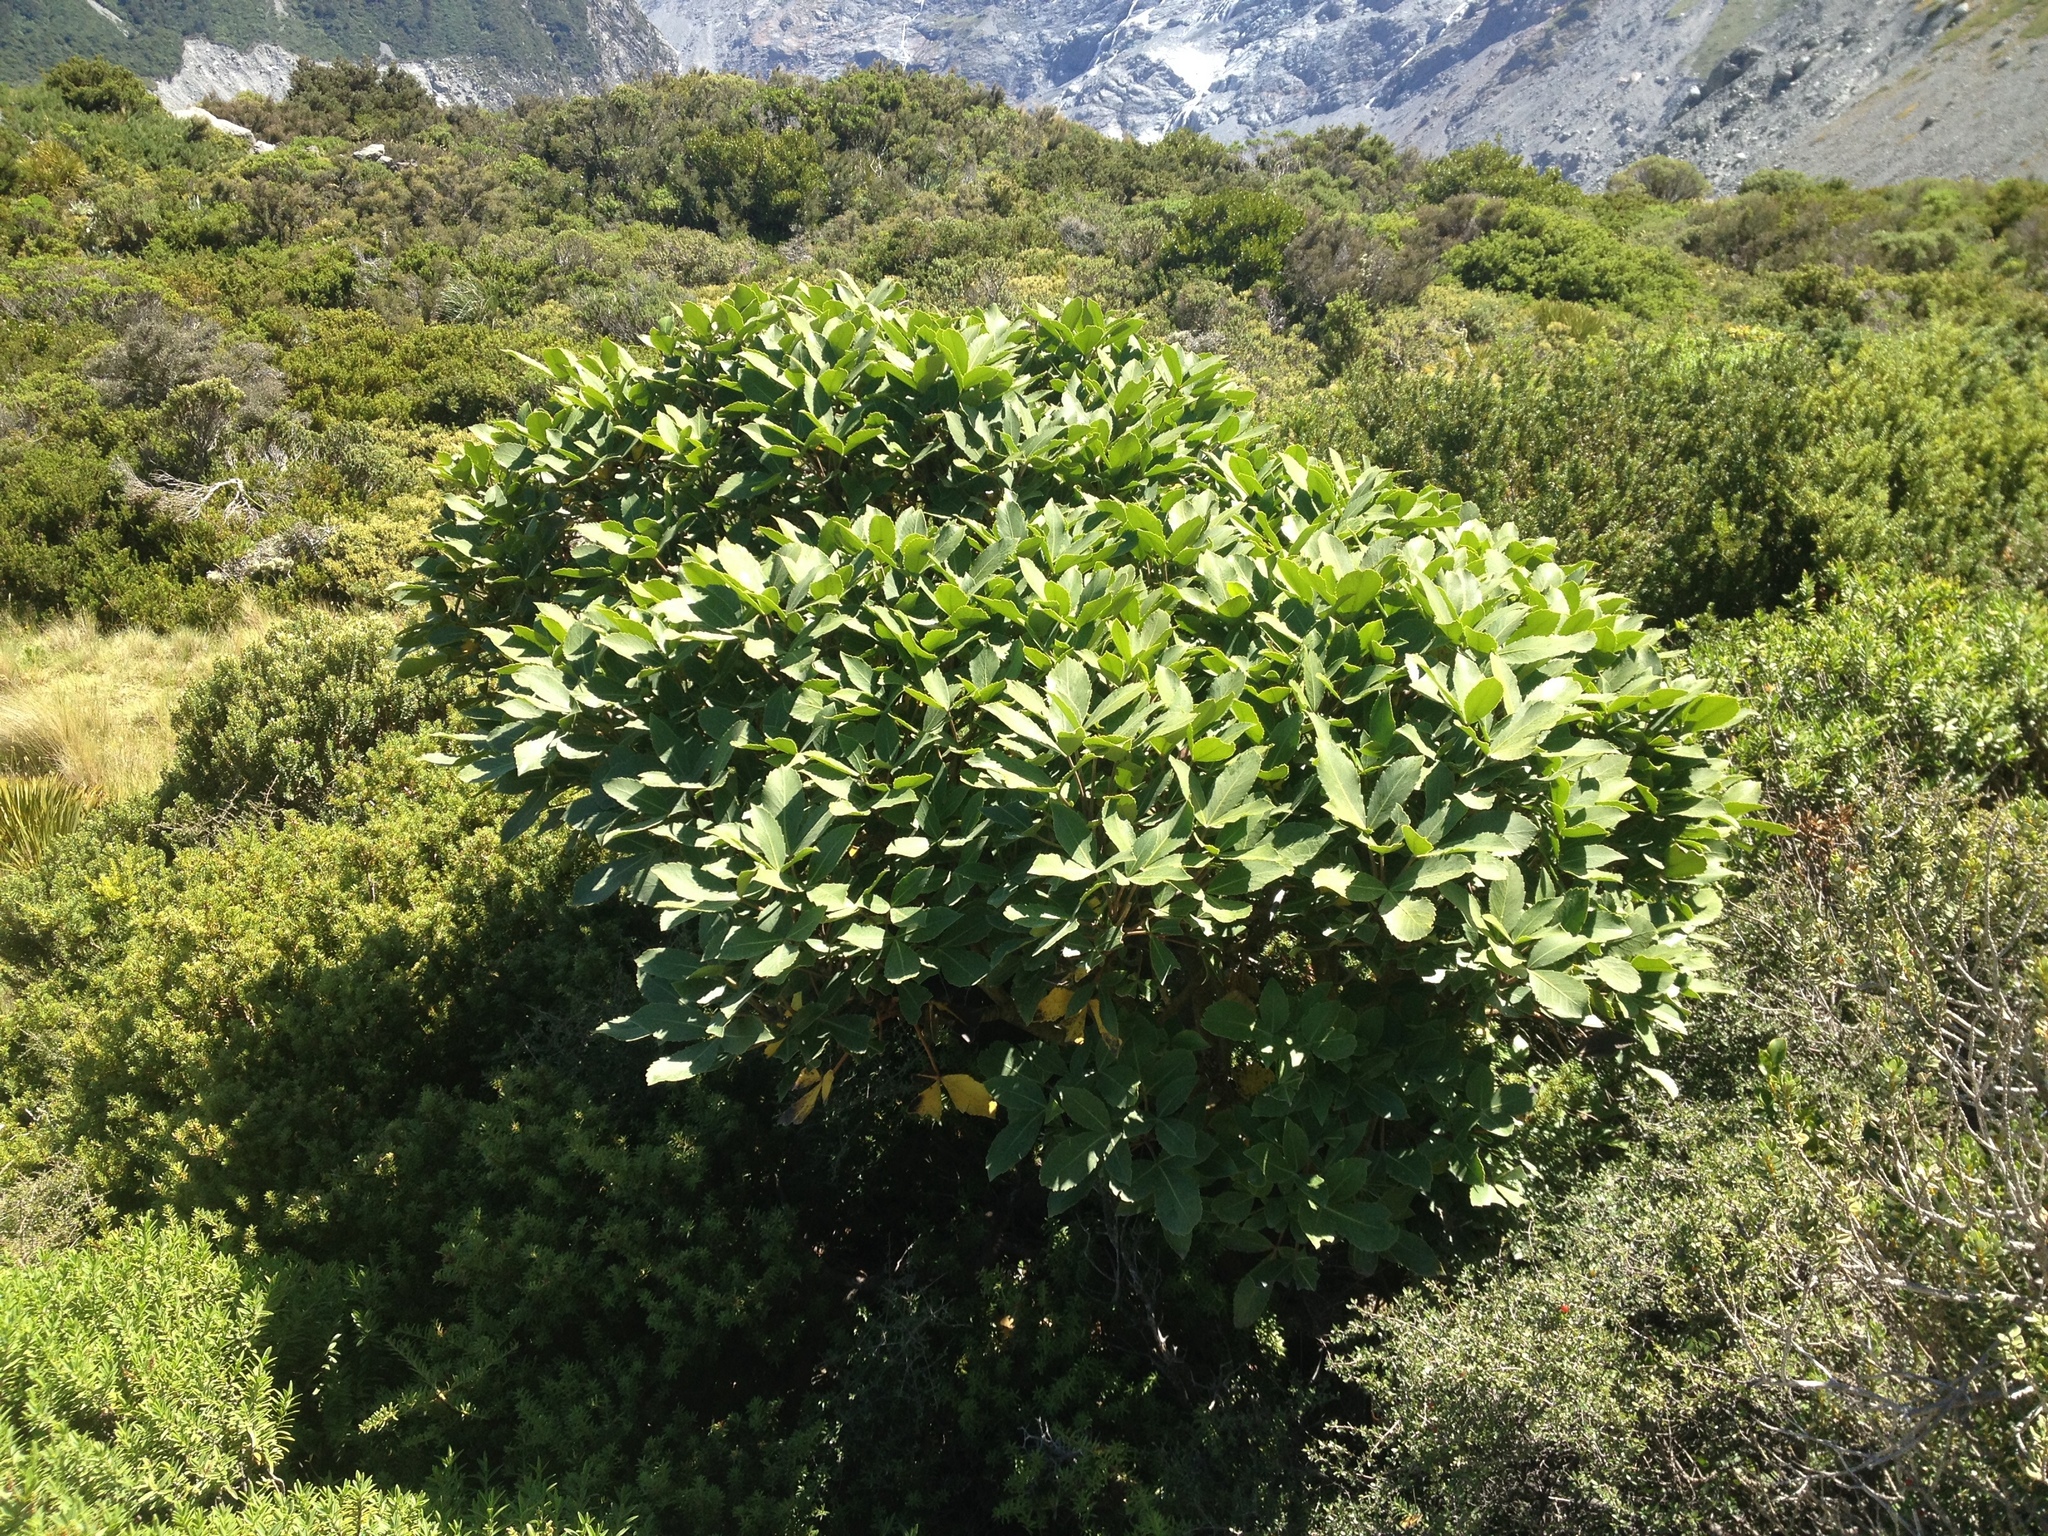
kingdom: Plantae
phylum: Tracheophyta
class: Magnoliopsida
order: Apiales
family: Araliaceae
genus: Neopanax
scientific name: Neopanax colensoi
